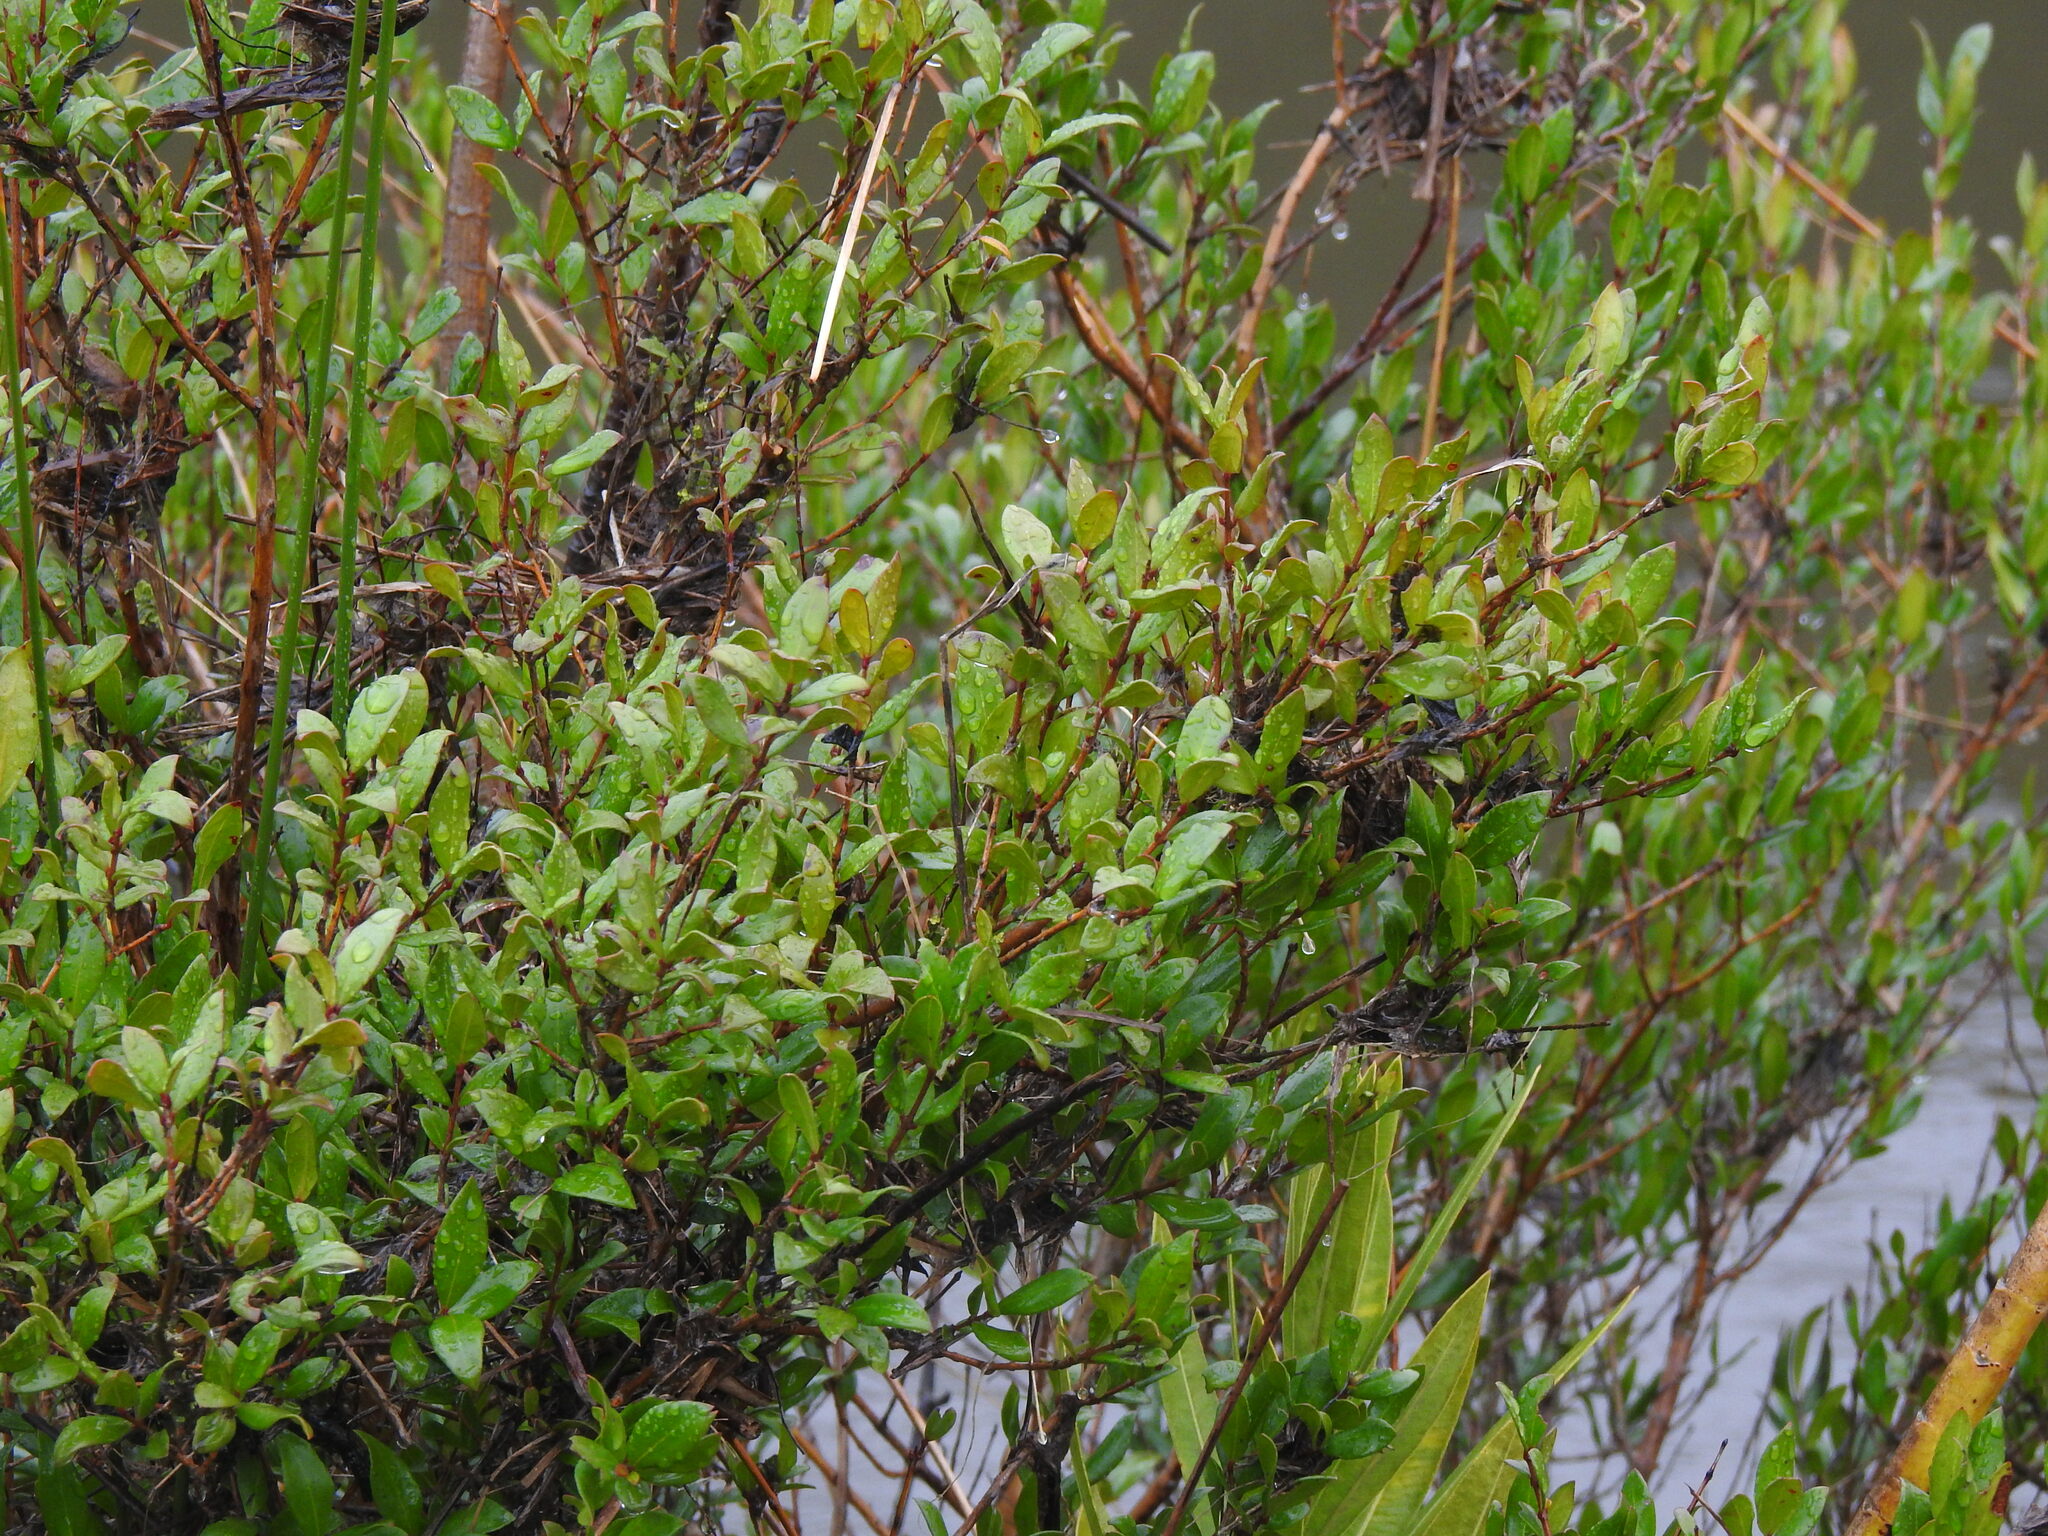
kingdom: Plantae
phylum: Tracheophyta
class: Magnoliopsida
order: Myrtales
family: Myrtaceae
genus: Myrtus
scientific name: Myrtus communis
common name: Myrtle
